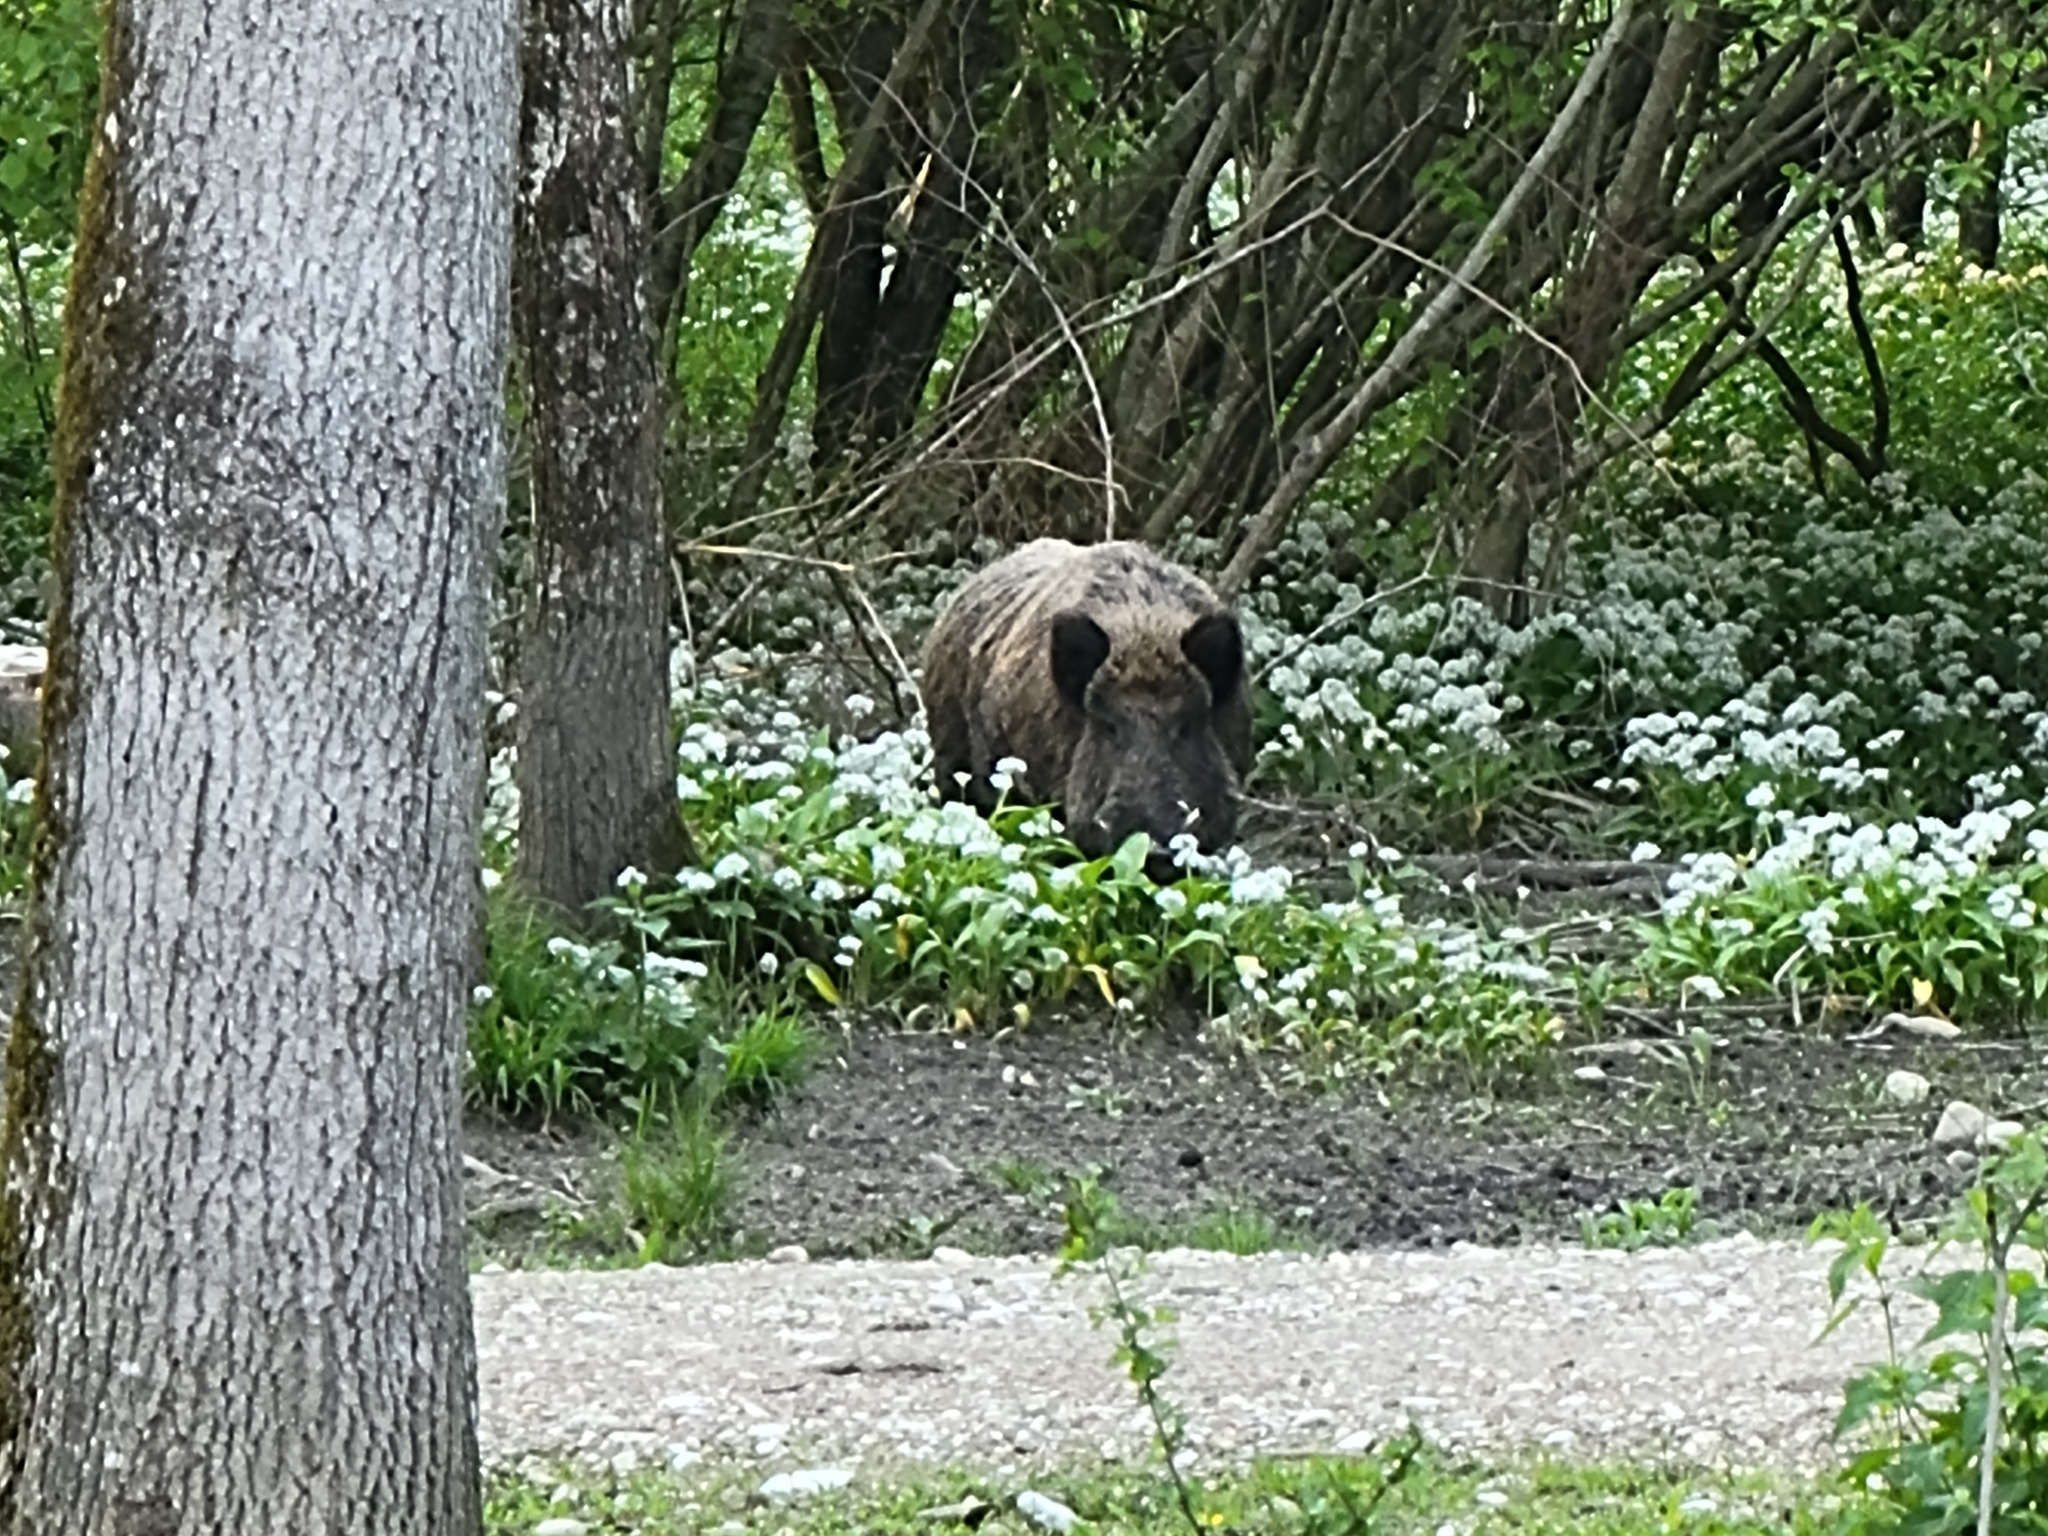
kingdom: Animalia
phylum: Chordata
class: Mammalia
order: Artiodactyla
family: Suidae
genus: Sus
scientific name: Sus scrofa
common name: Wild boar
